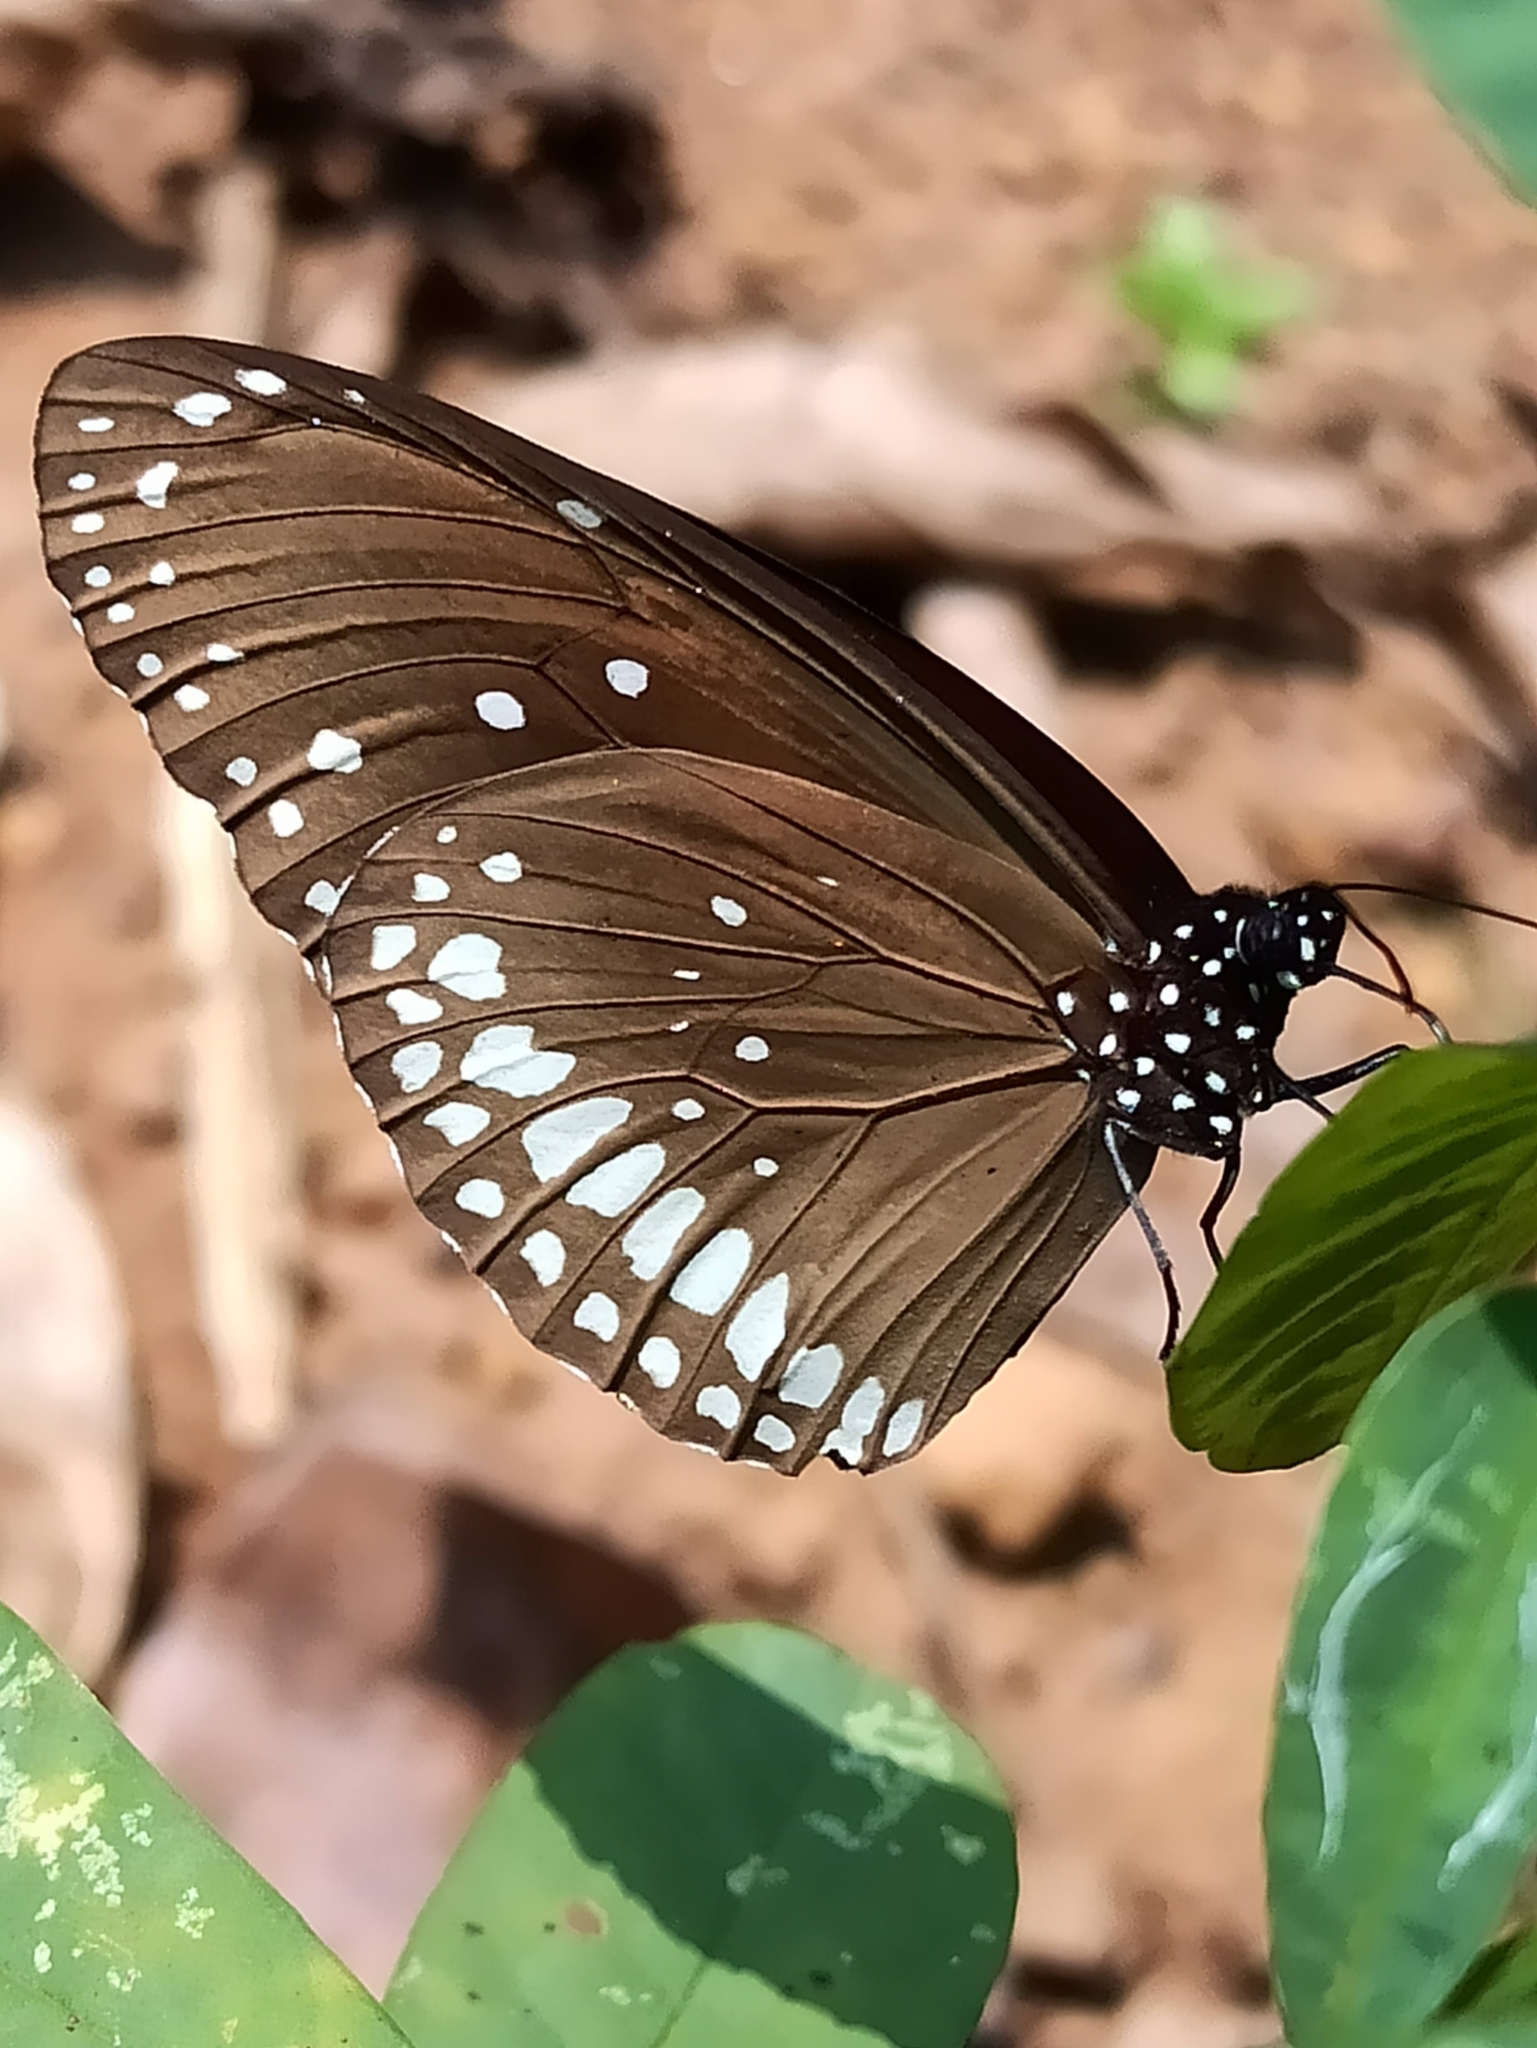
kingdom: Animalia
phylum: Arthropoda
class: Insecta
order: Lepidoptera
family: Nymphalidae
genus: Euploea
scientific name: Euploea core
